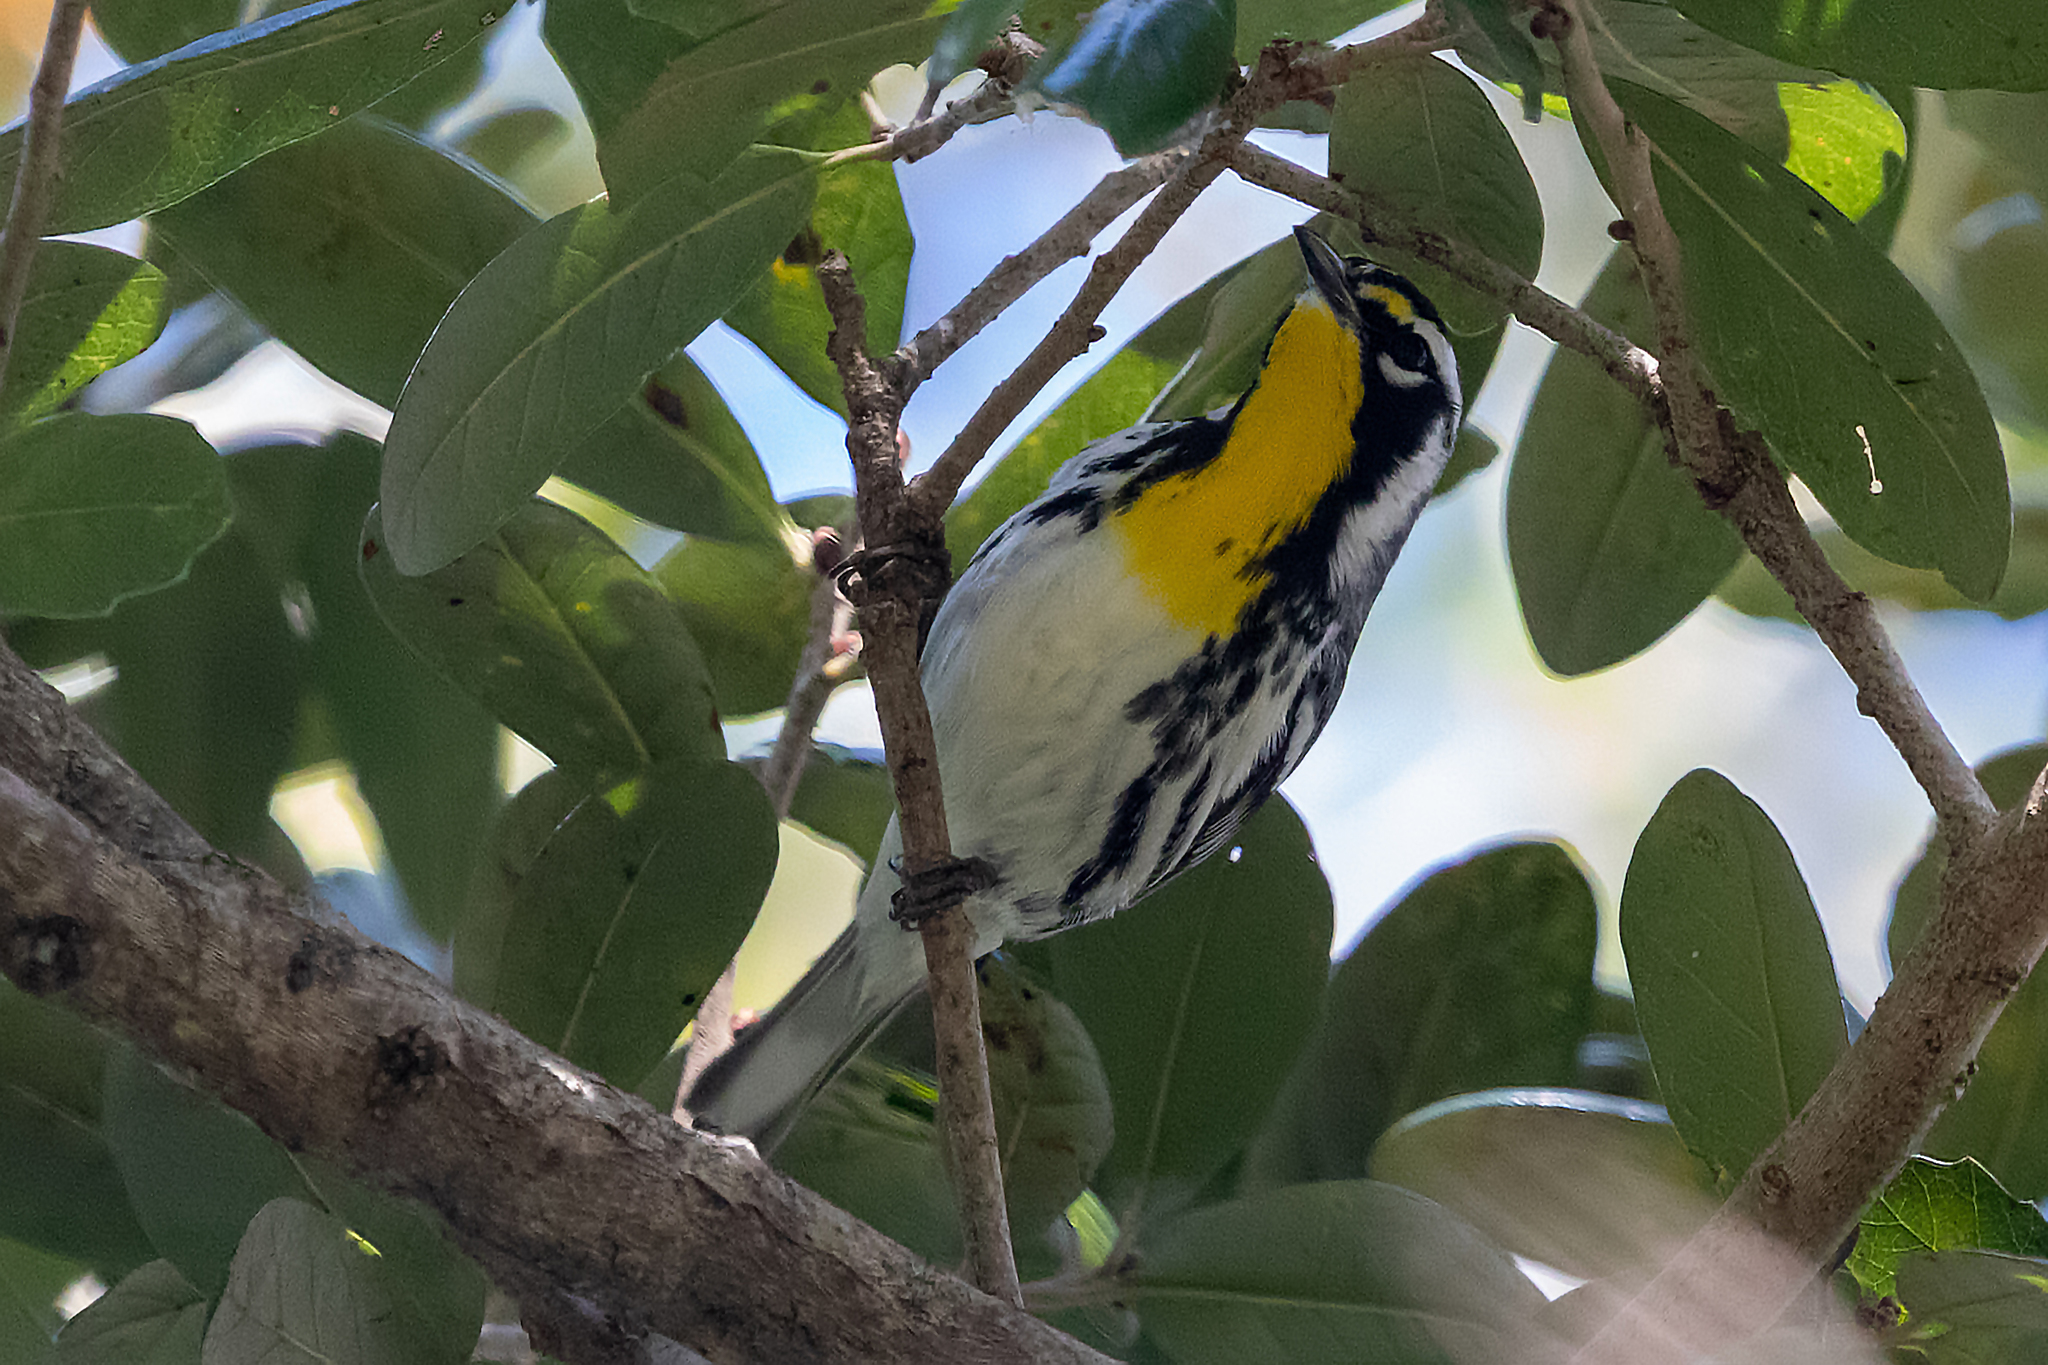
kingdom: Animalia
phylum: Chordata
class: Aves
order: Passeriformes
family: Parulidae
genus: Setophaga
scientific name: Setophaga dominica
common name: Yellow-throated warbler
